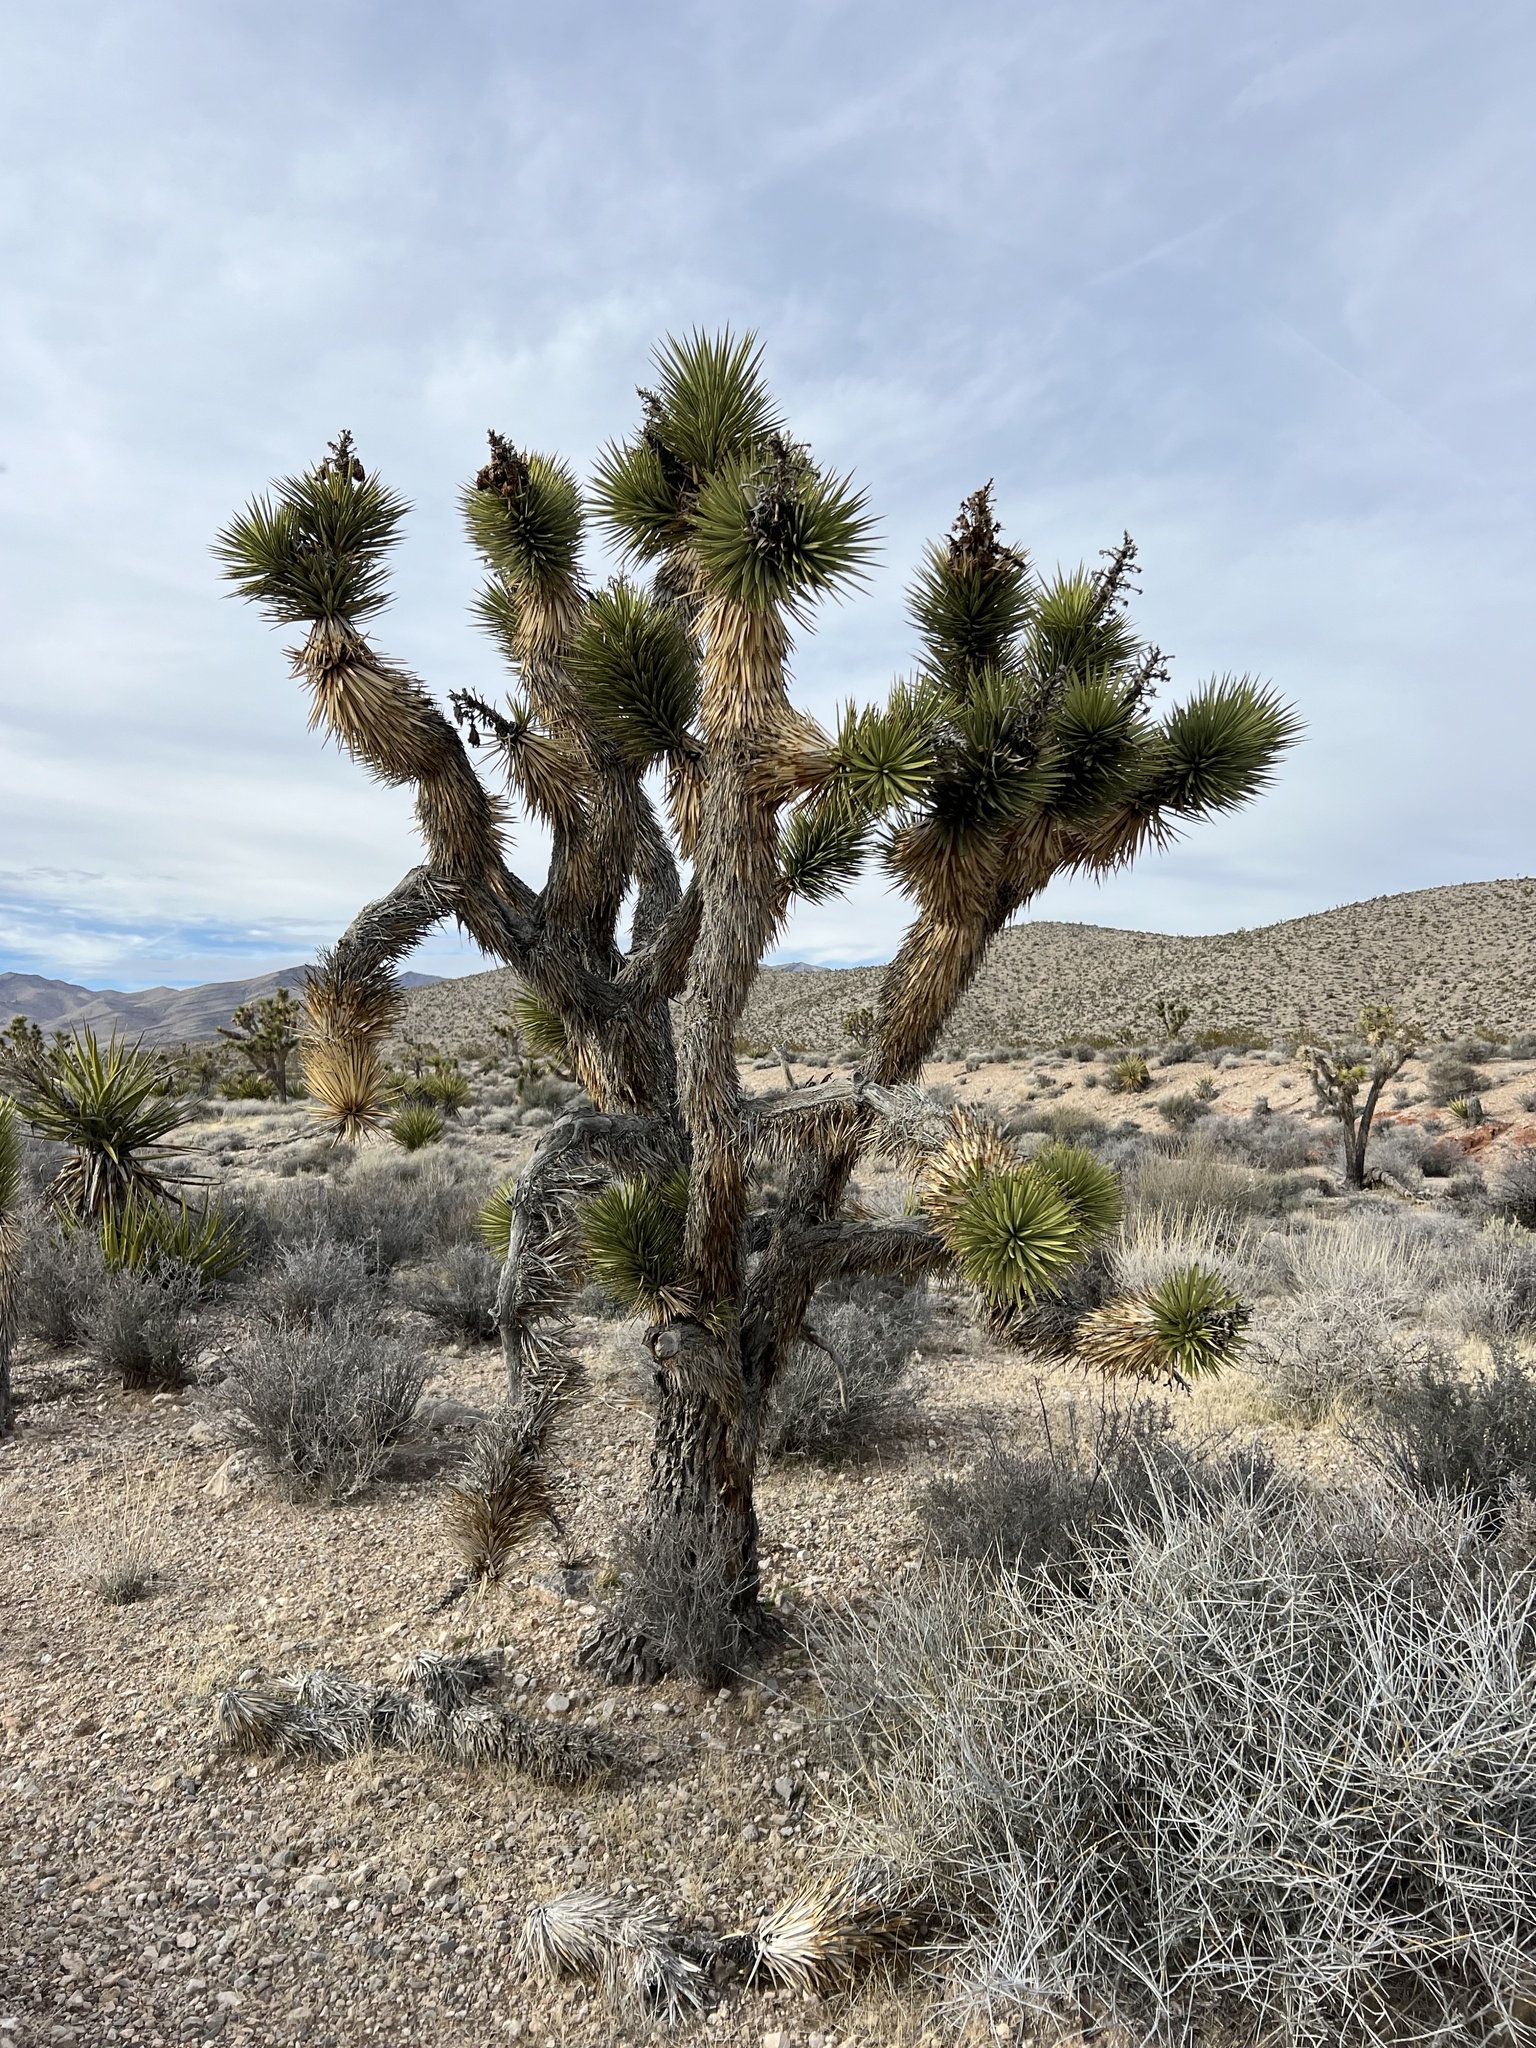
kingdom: Plantae
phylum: Tracheophyta
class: Liliopsida
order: Asparagales
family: Asparagaceae
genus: Yucca
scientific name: Yucca brevifolia
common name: Joshua tree
